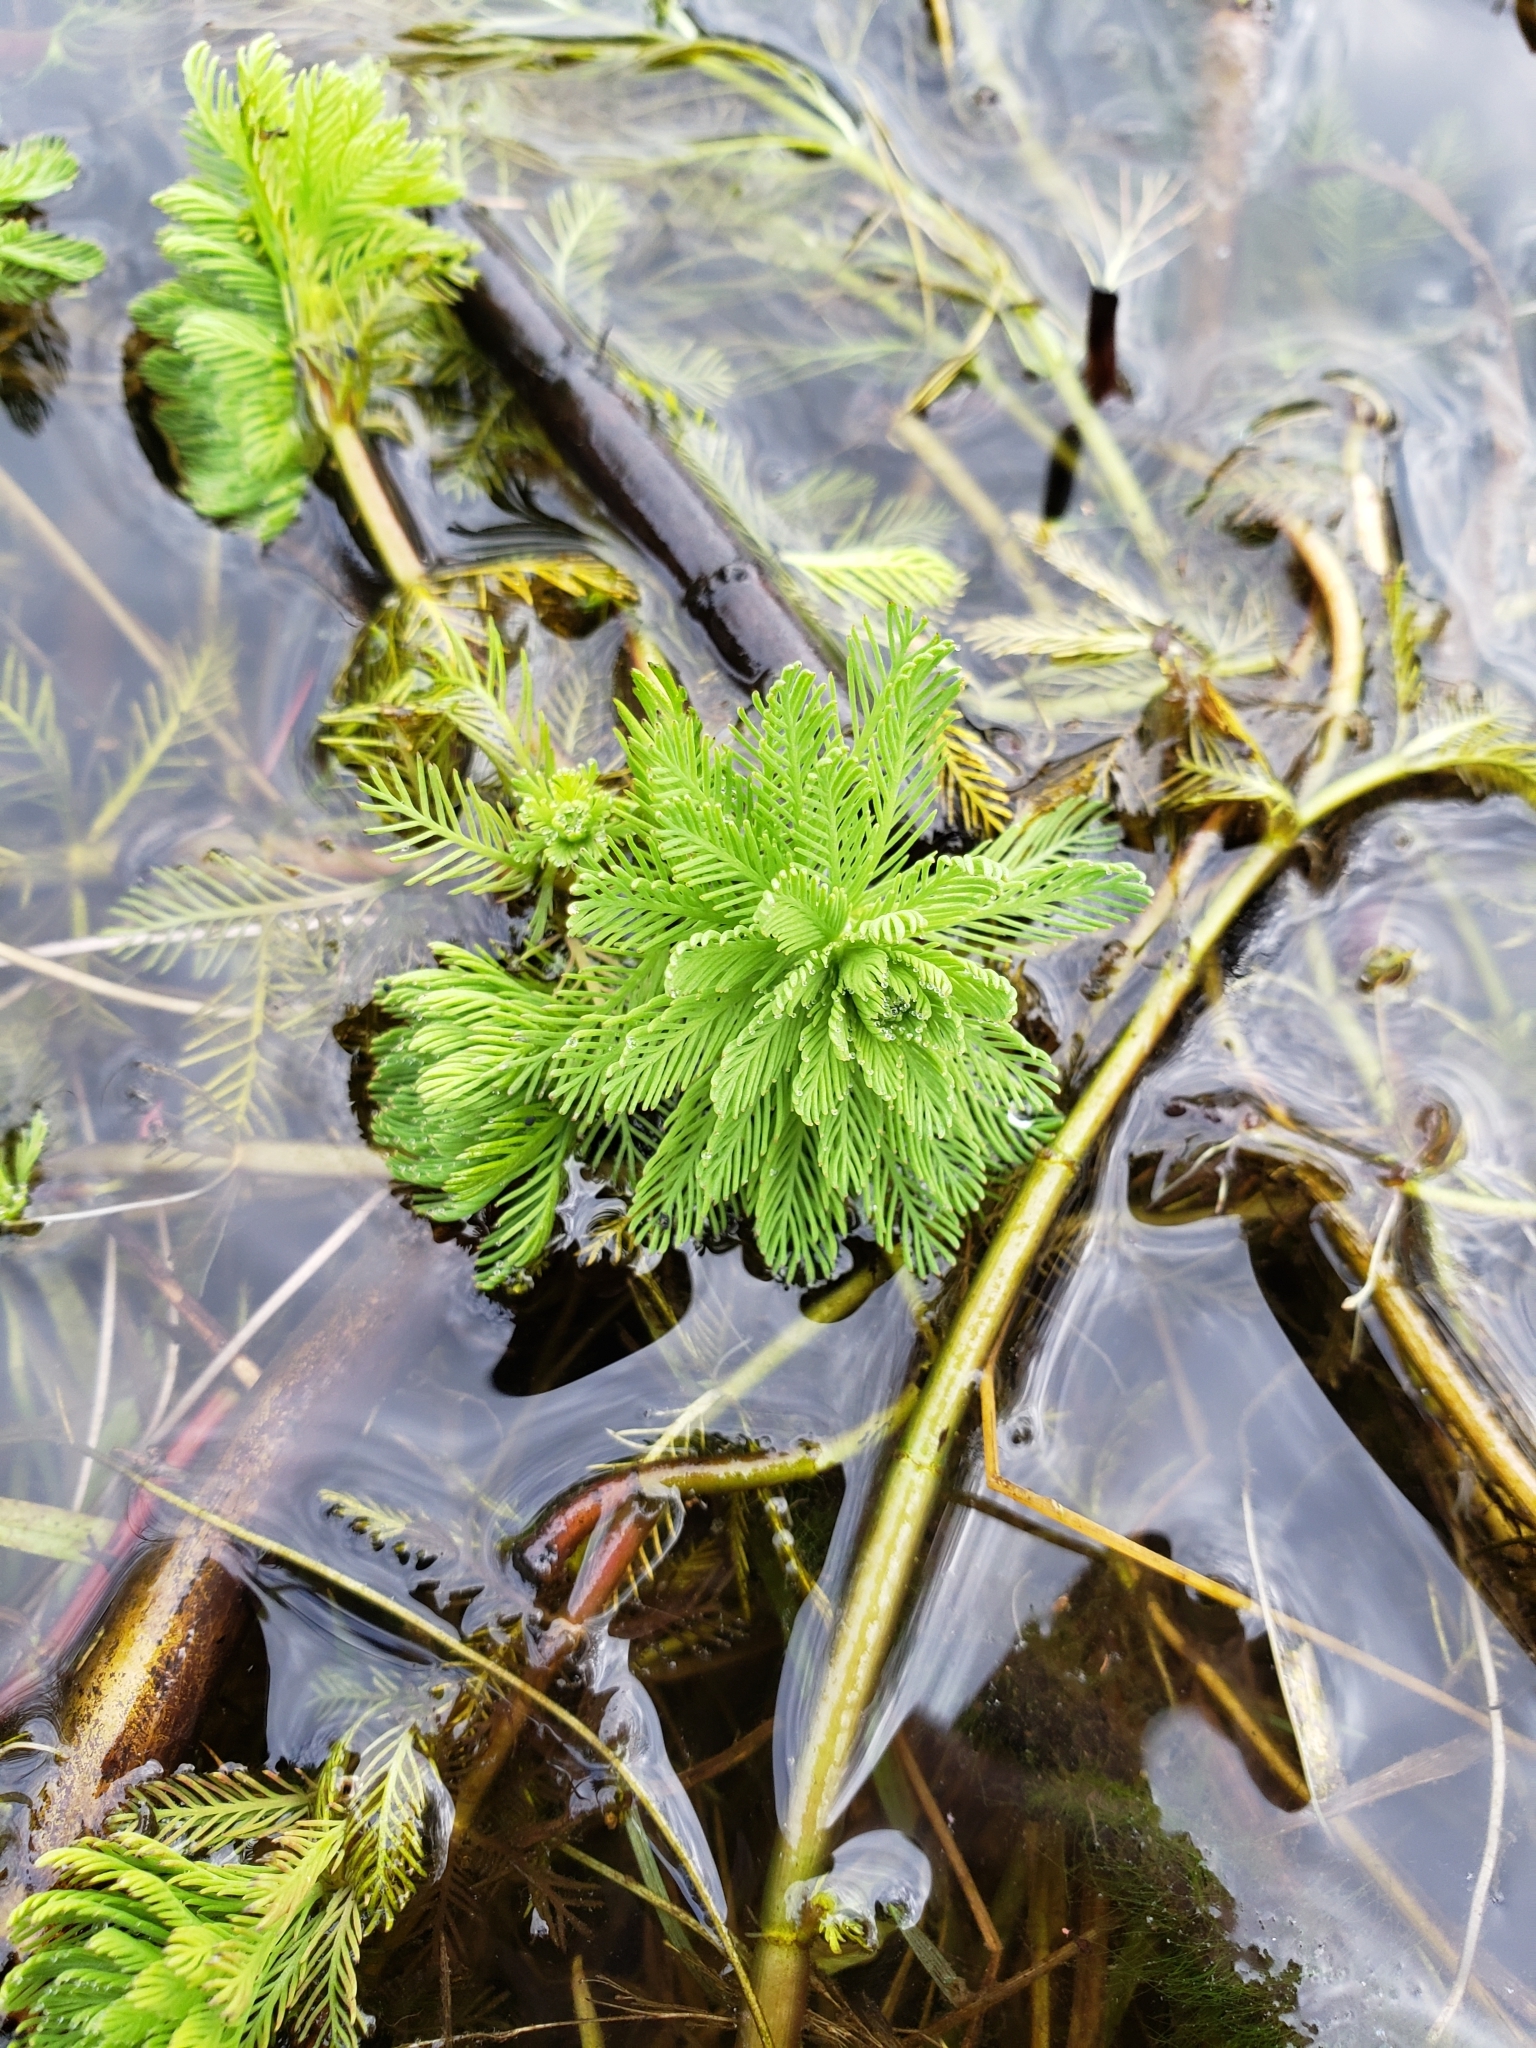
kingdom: Plantae
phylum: Tracheophyta
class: Magnoliopsida
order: Saxifragales
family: Haloragaceae
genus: Myriophyllum
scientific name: Myriophyllum aquaticum
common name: Parrot's feather
